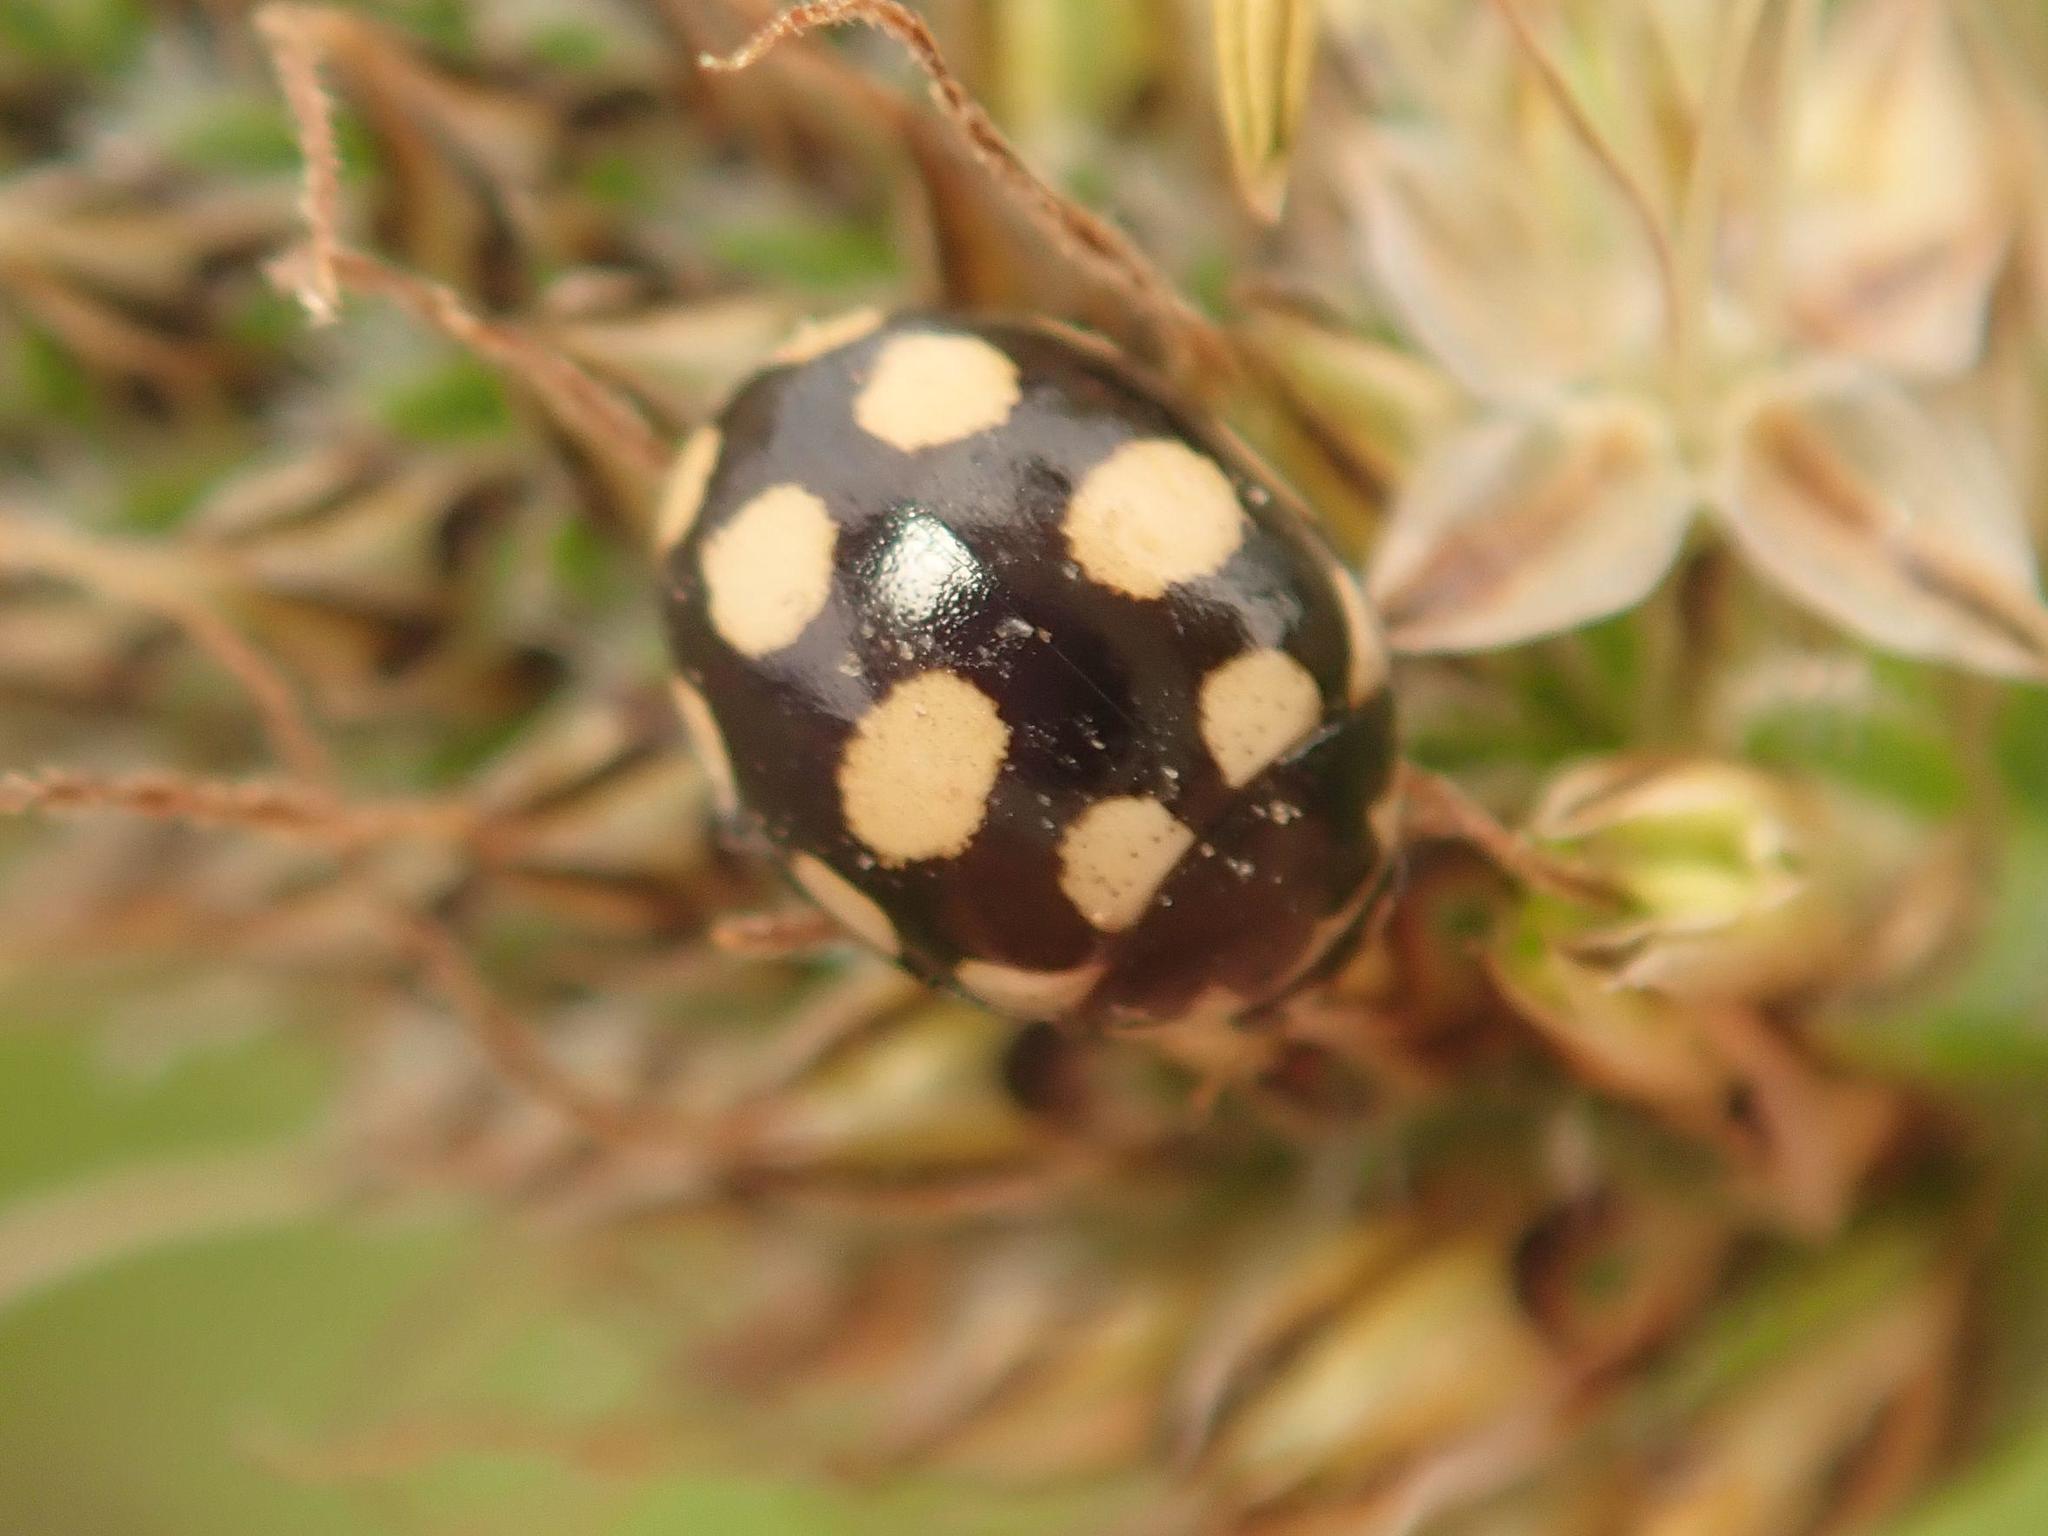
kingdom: Animalia
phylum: Arthropoda
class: Insecta
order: Coleoptera
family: Coccinellidae
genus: Coccinula
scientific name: Coccinula quatuordecimpustulata
